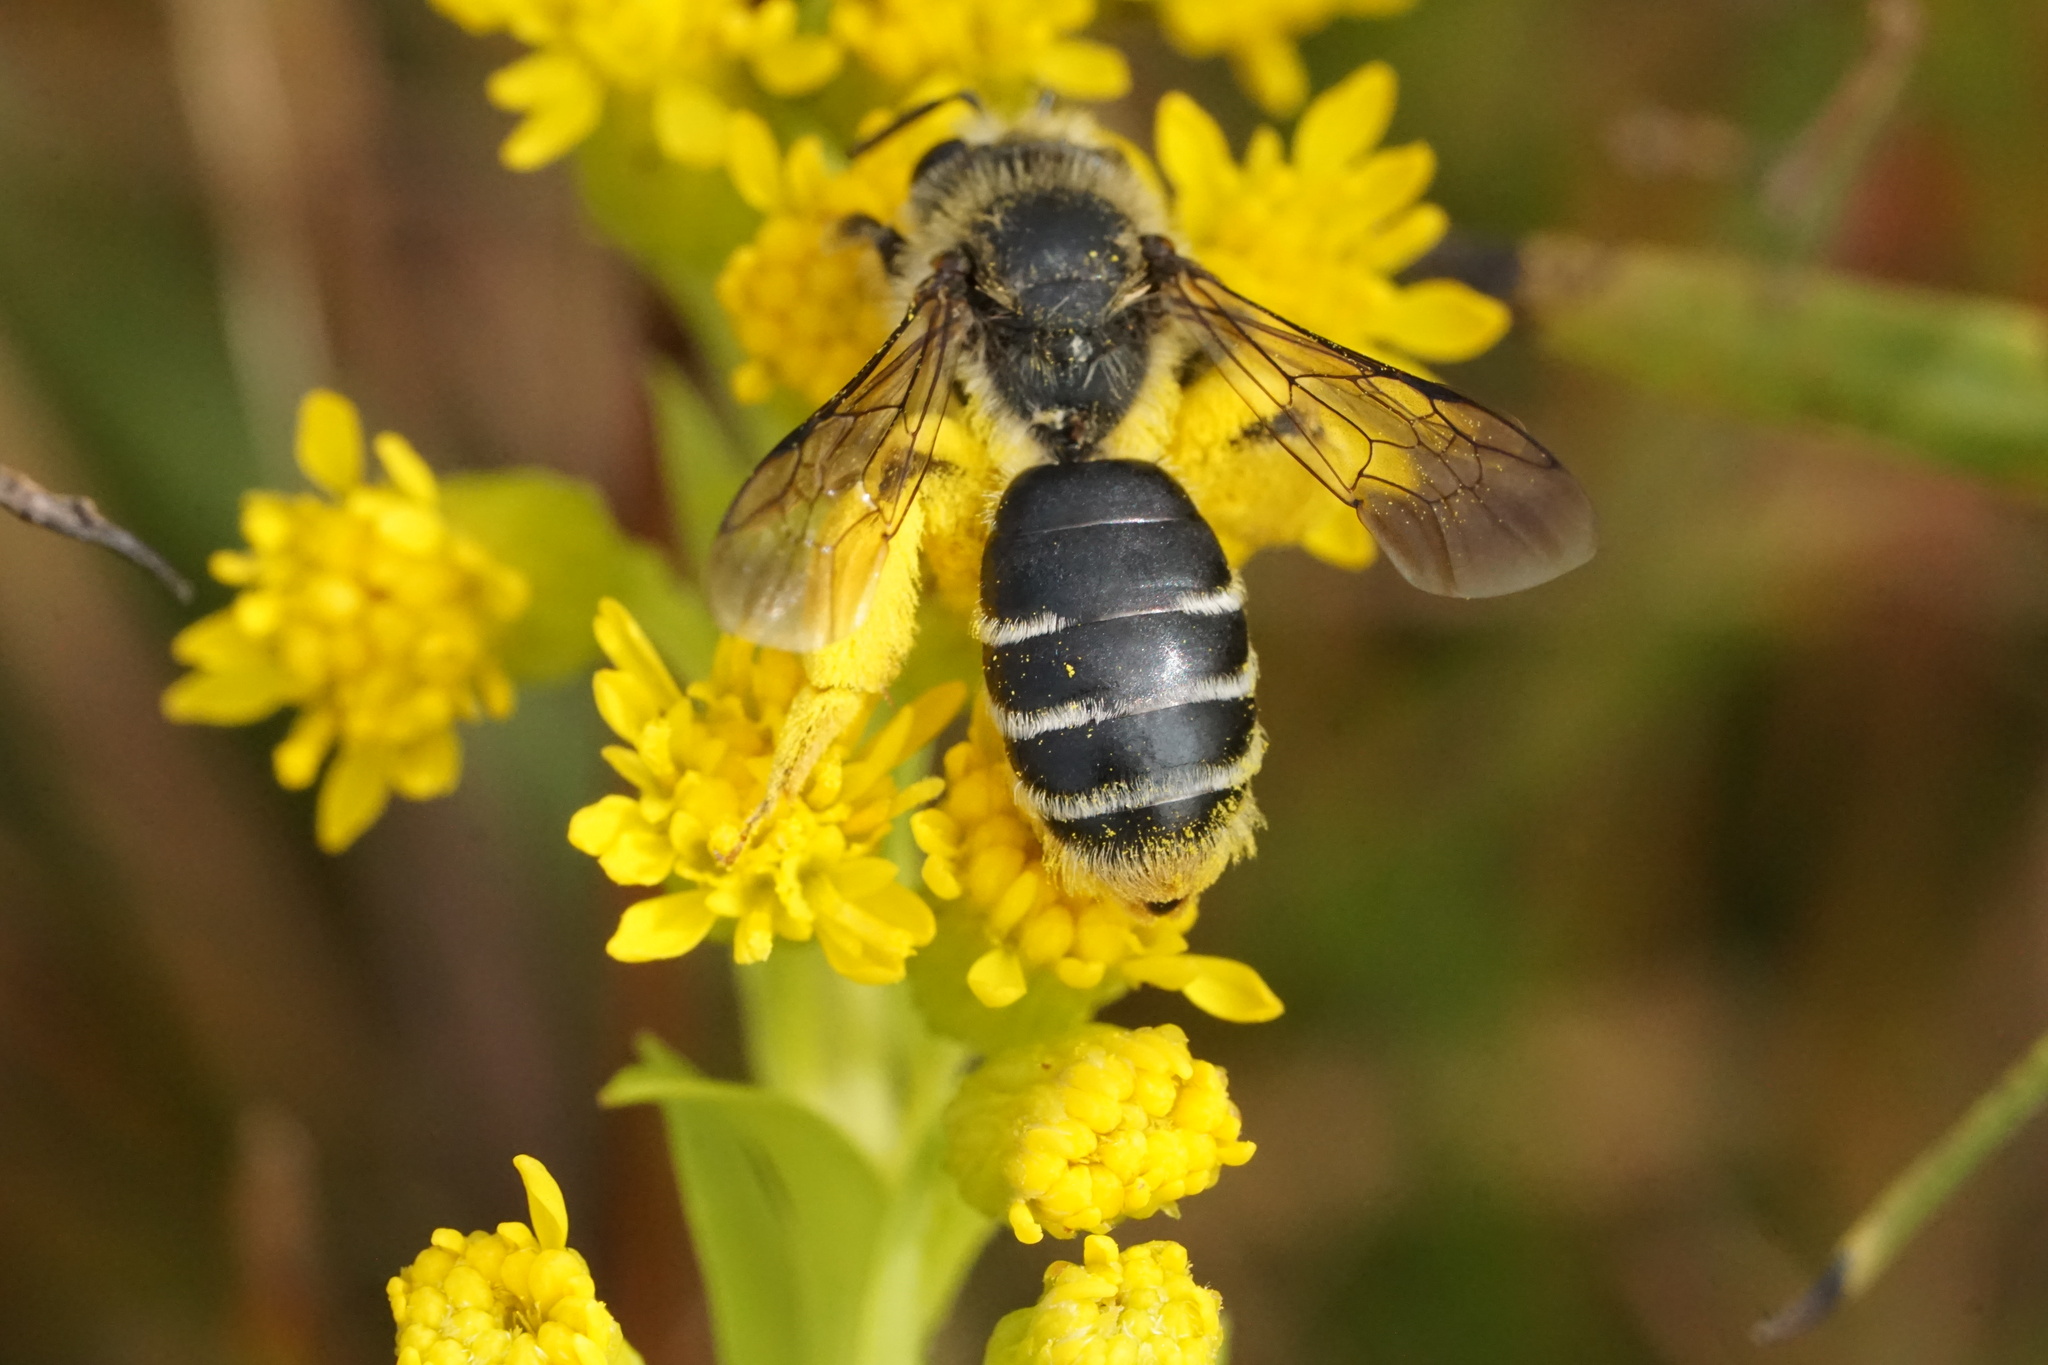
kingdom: Animalia
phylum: Arthropoda
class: Insecta
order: Hymenoptera
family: Andrenidae
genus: Andrena
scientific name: Andrena braccata
